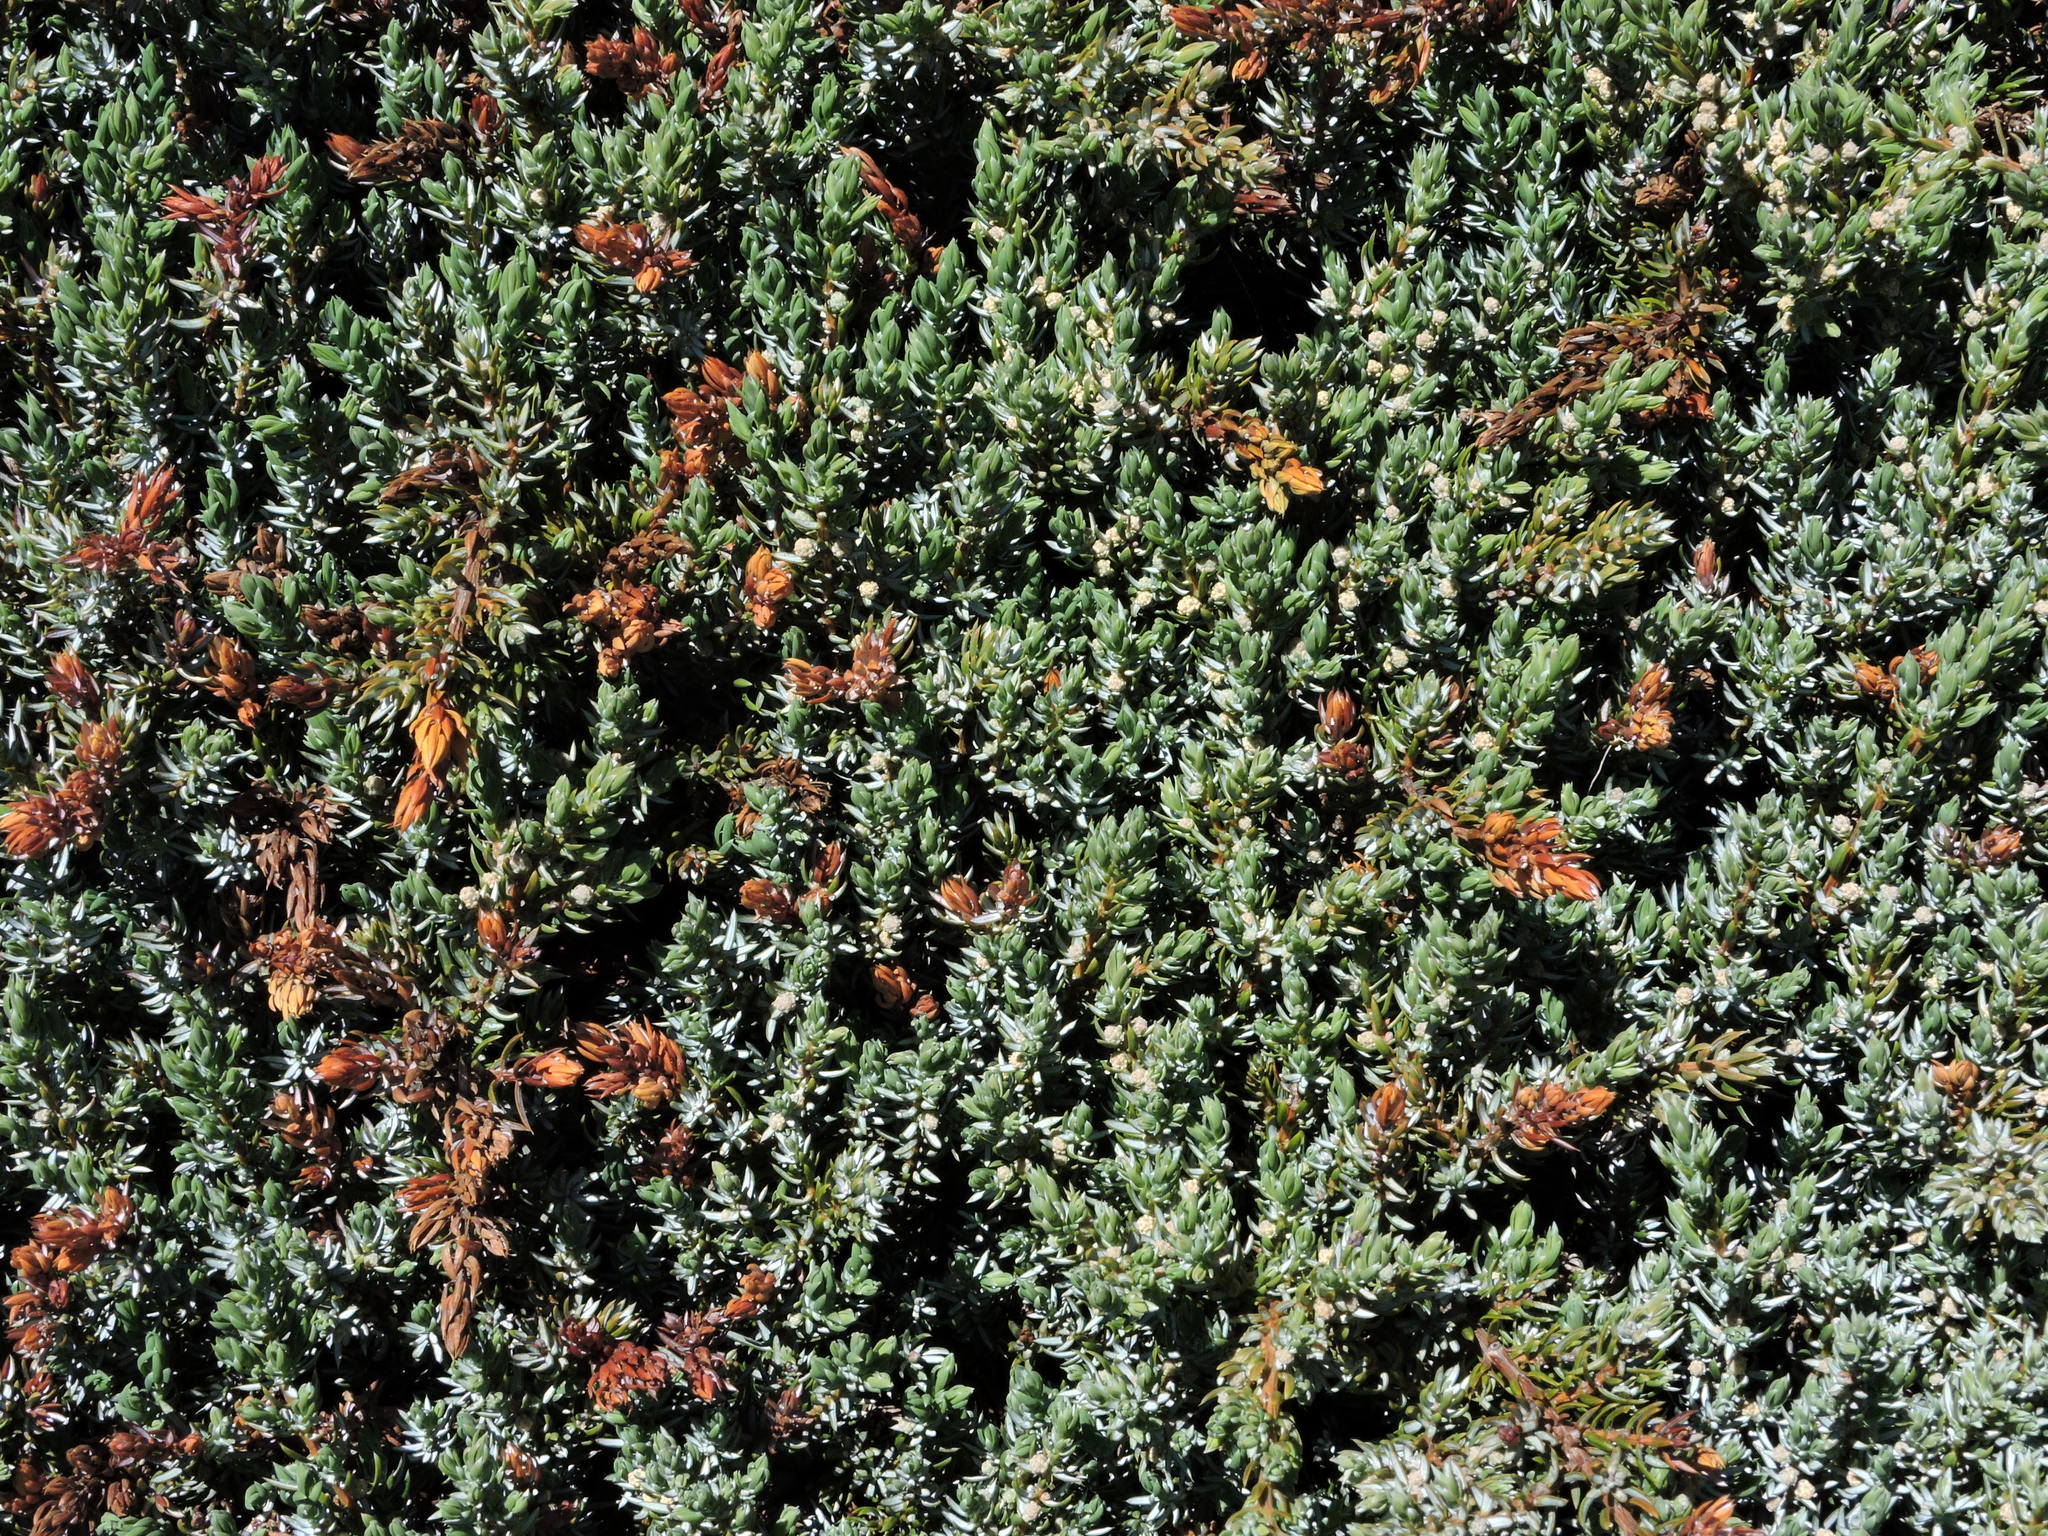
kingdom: Plantae
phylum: Tracheophyta
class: Pinopsida
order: Pinales
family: Cupressaceae
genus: Juniperus
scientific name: Juniperus communis
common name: Common juniper
